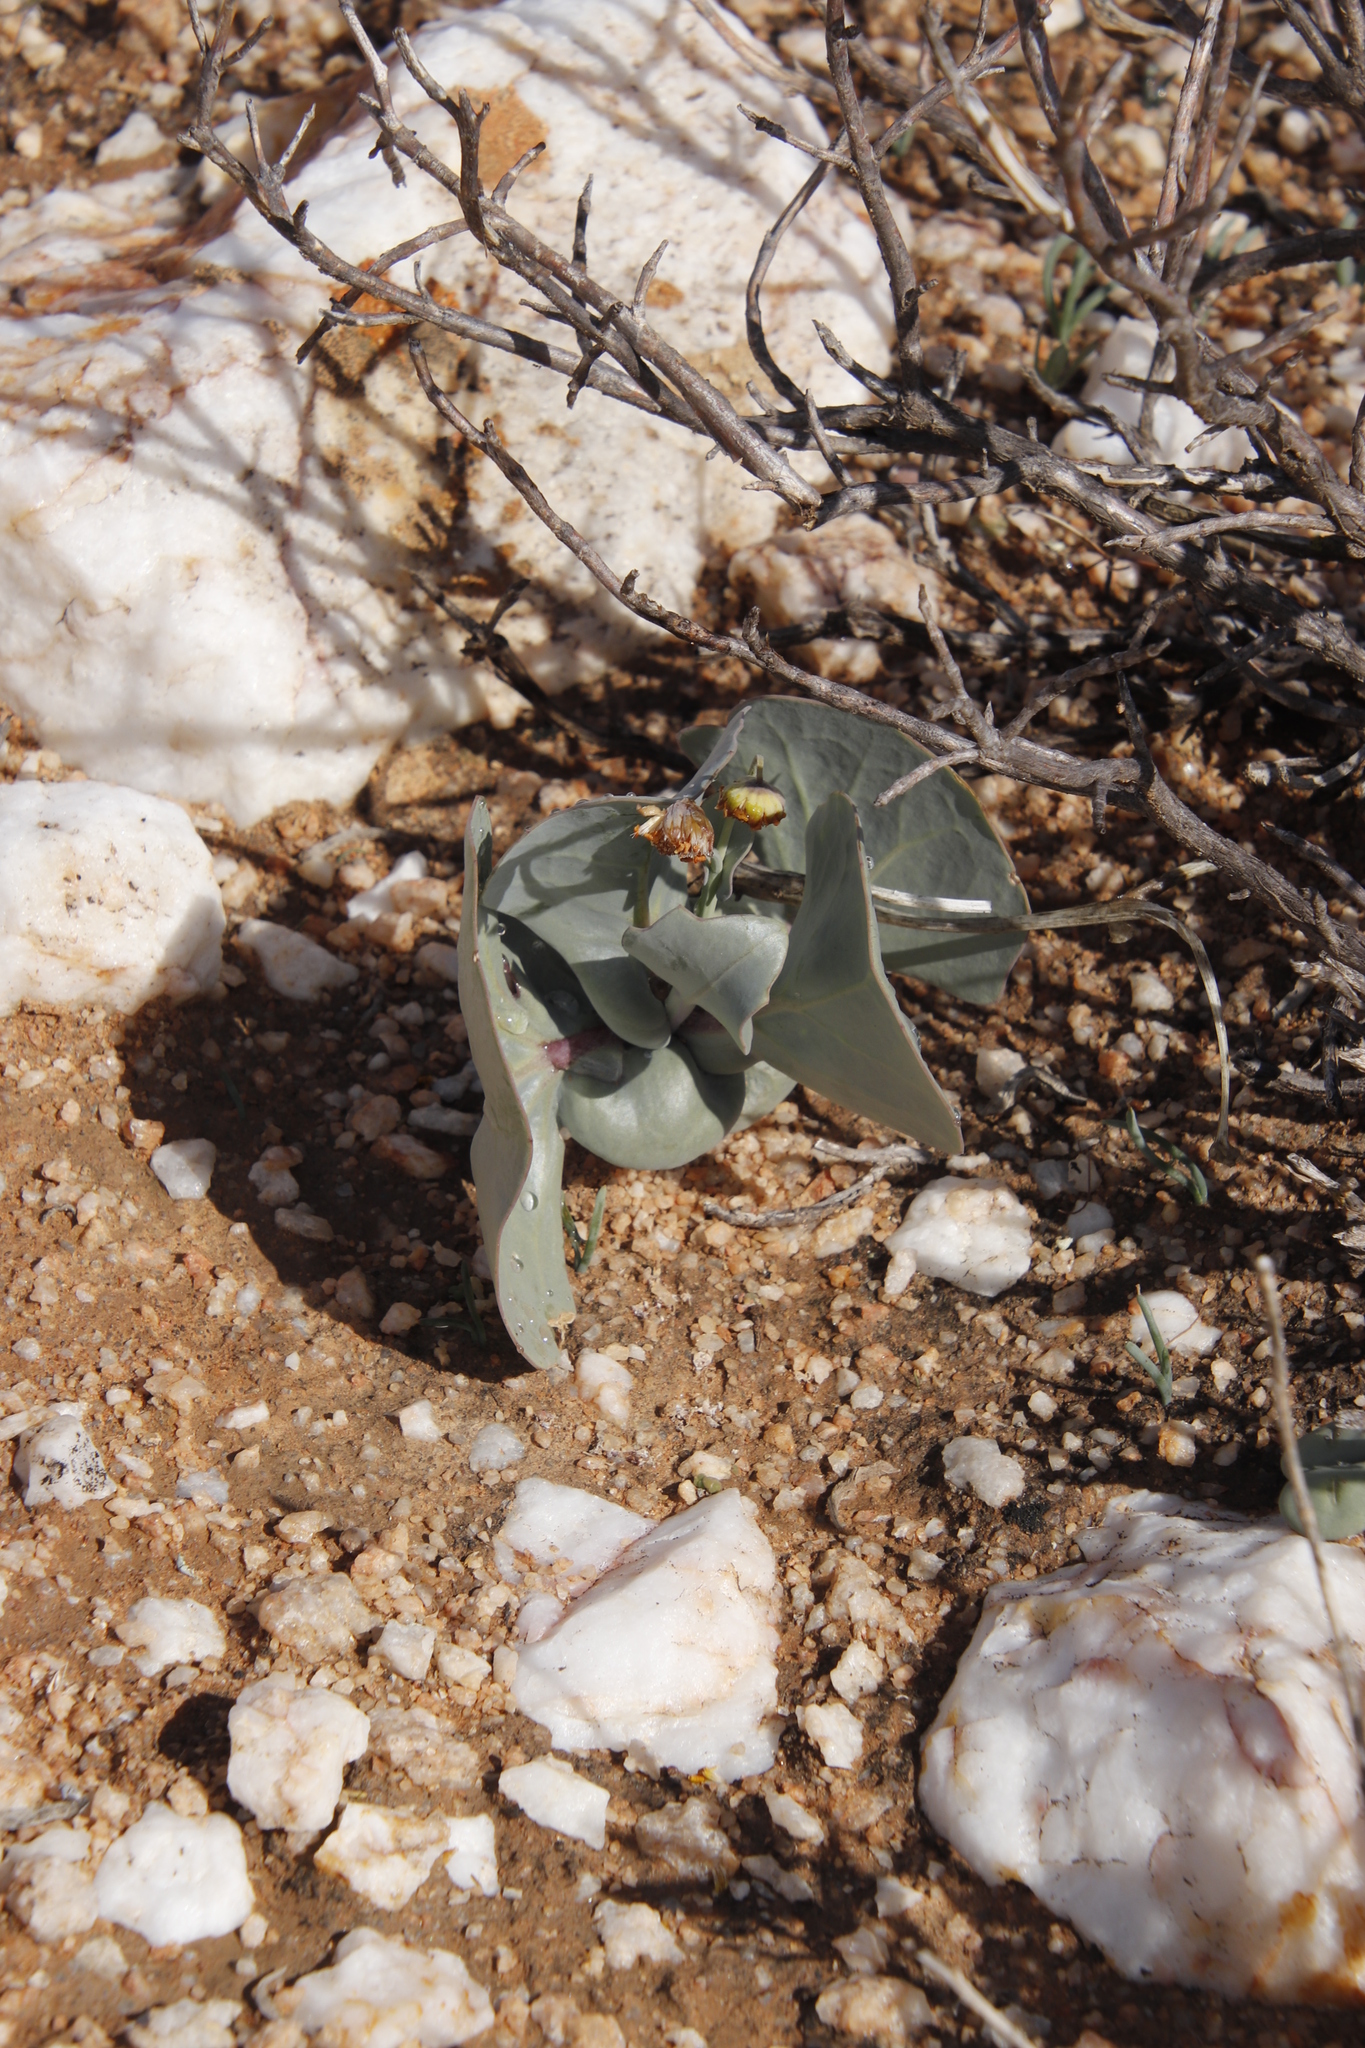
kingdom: Plantae
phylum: Tracheophyta
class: Magnoliopsida
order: Asterales
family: Asteraceae
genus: Othonna
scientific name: Othonna cuneata
